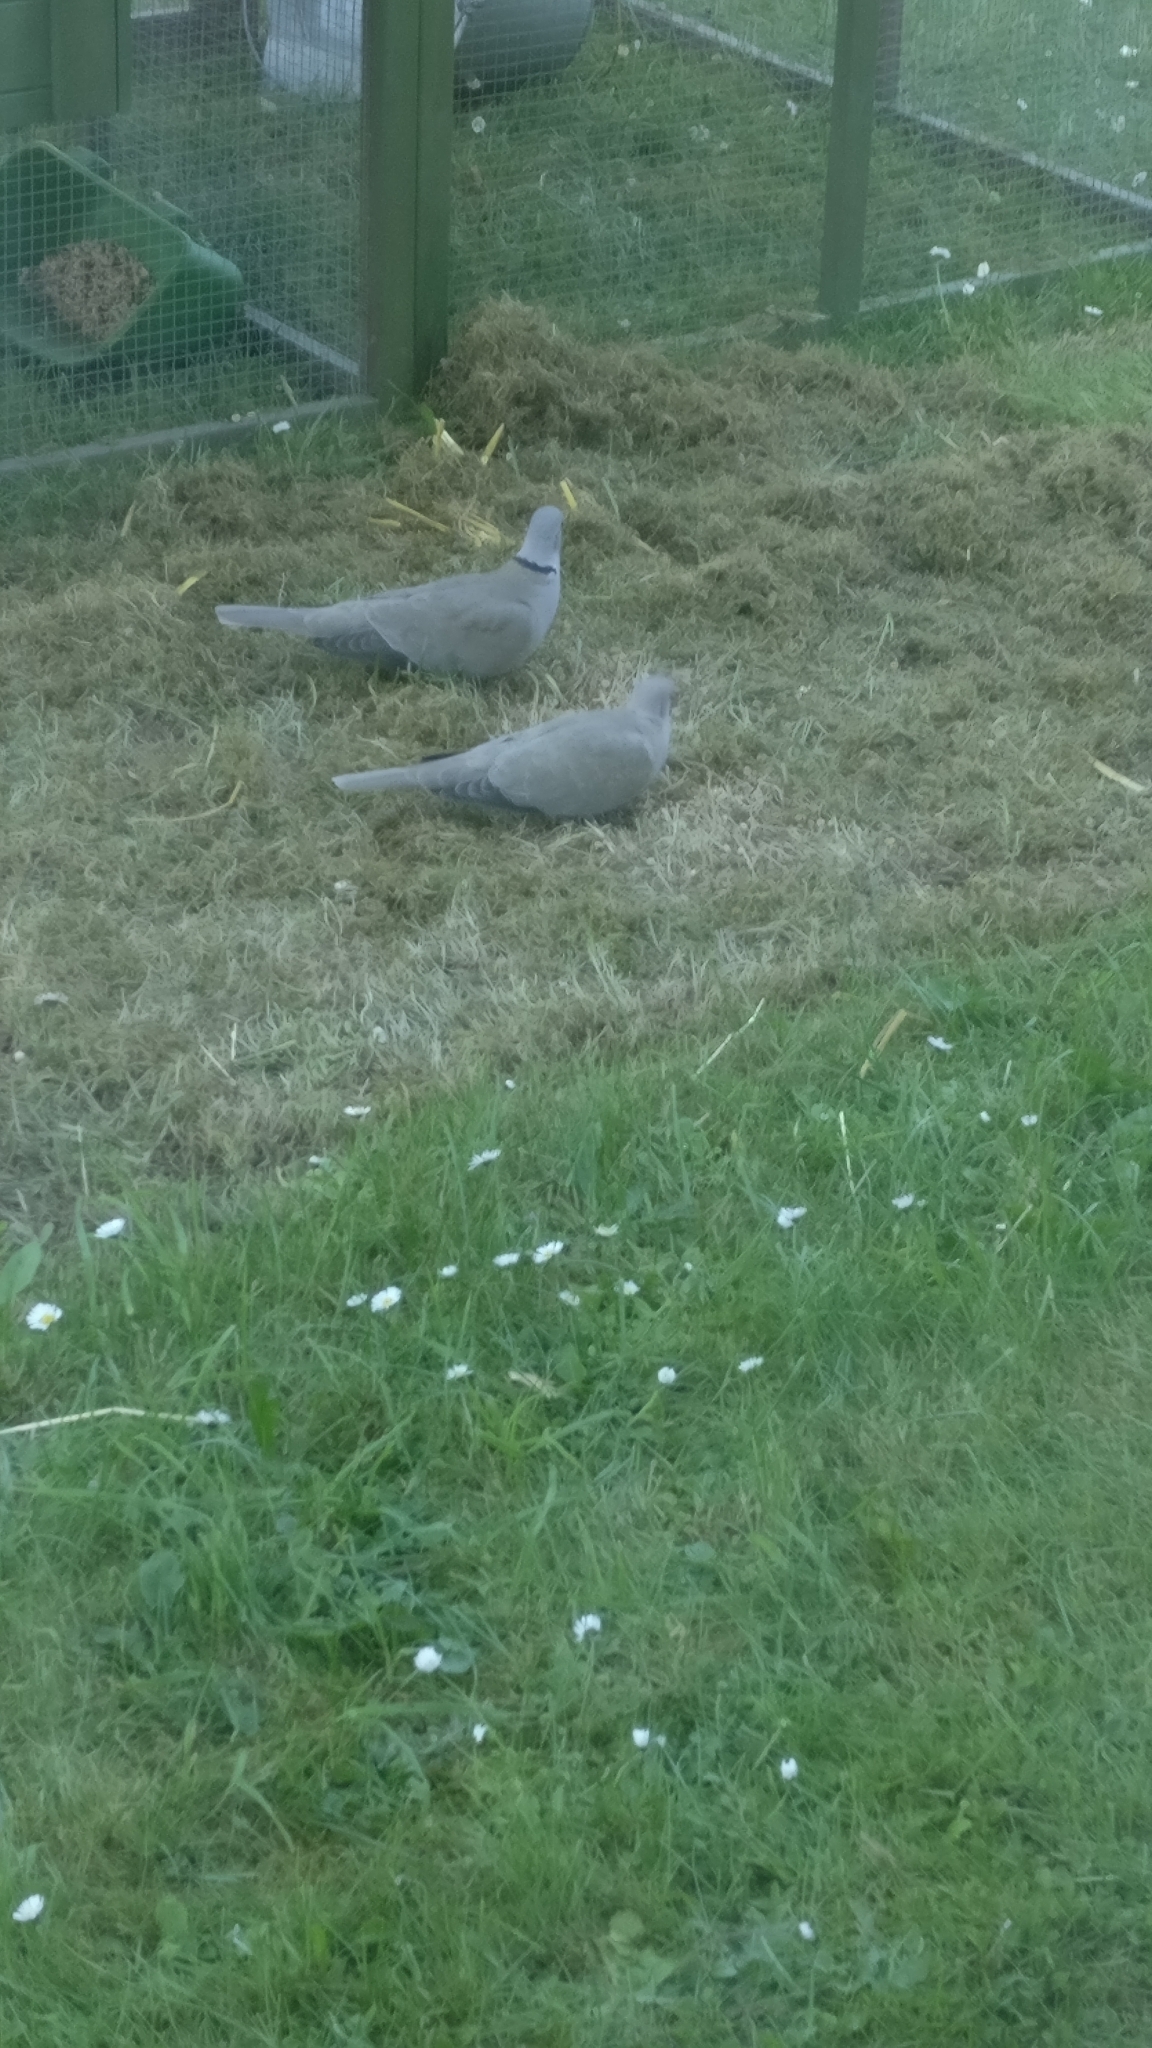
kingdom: Animalia
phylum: Chordata
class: Aves
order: Columbiformes
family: Columbidae
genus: Streptopelia
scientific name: Streptopelia decaocto
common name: Eurasian collared dove
